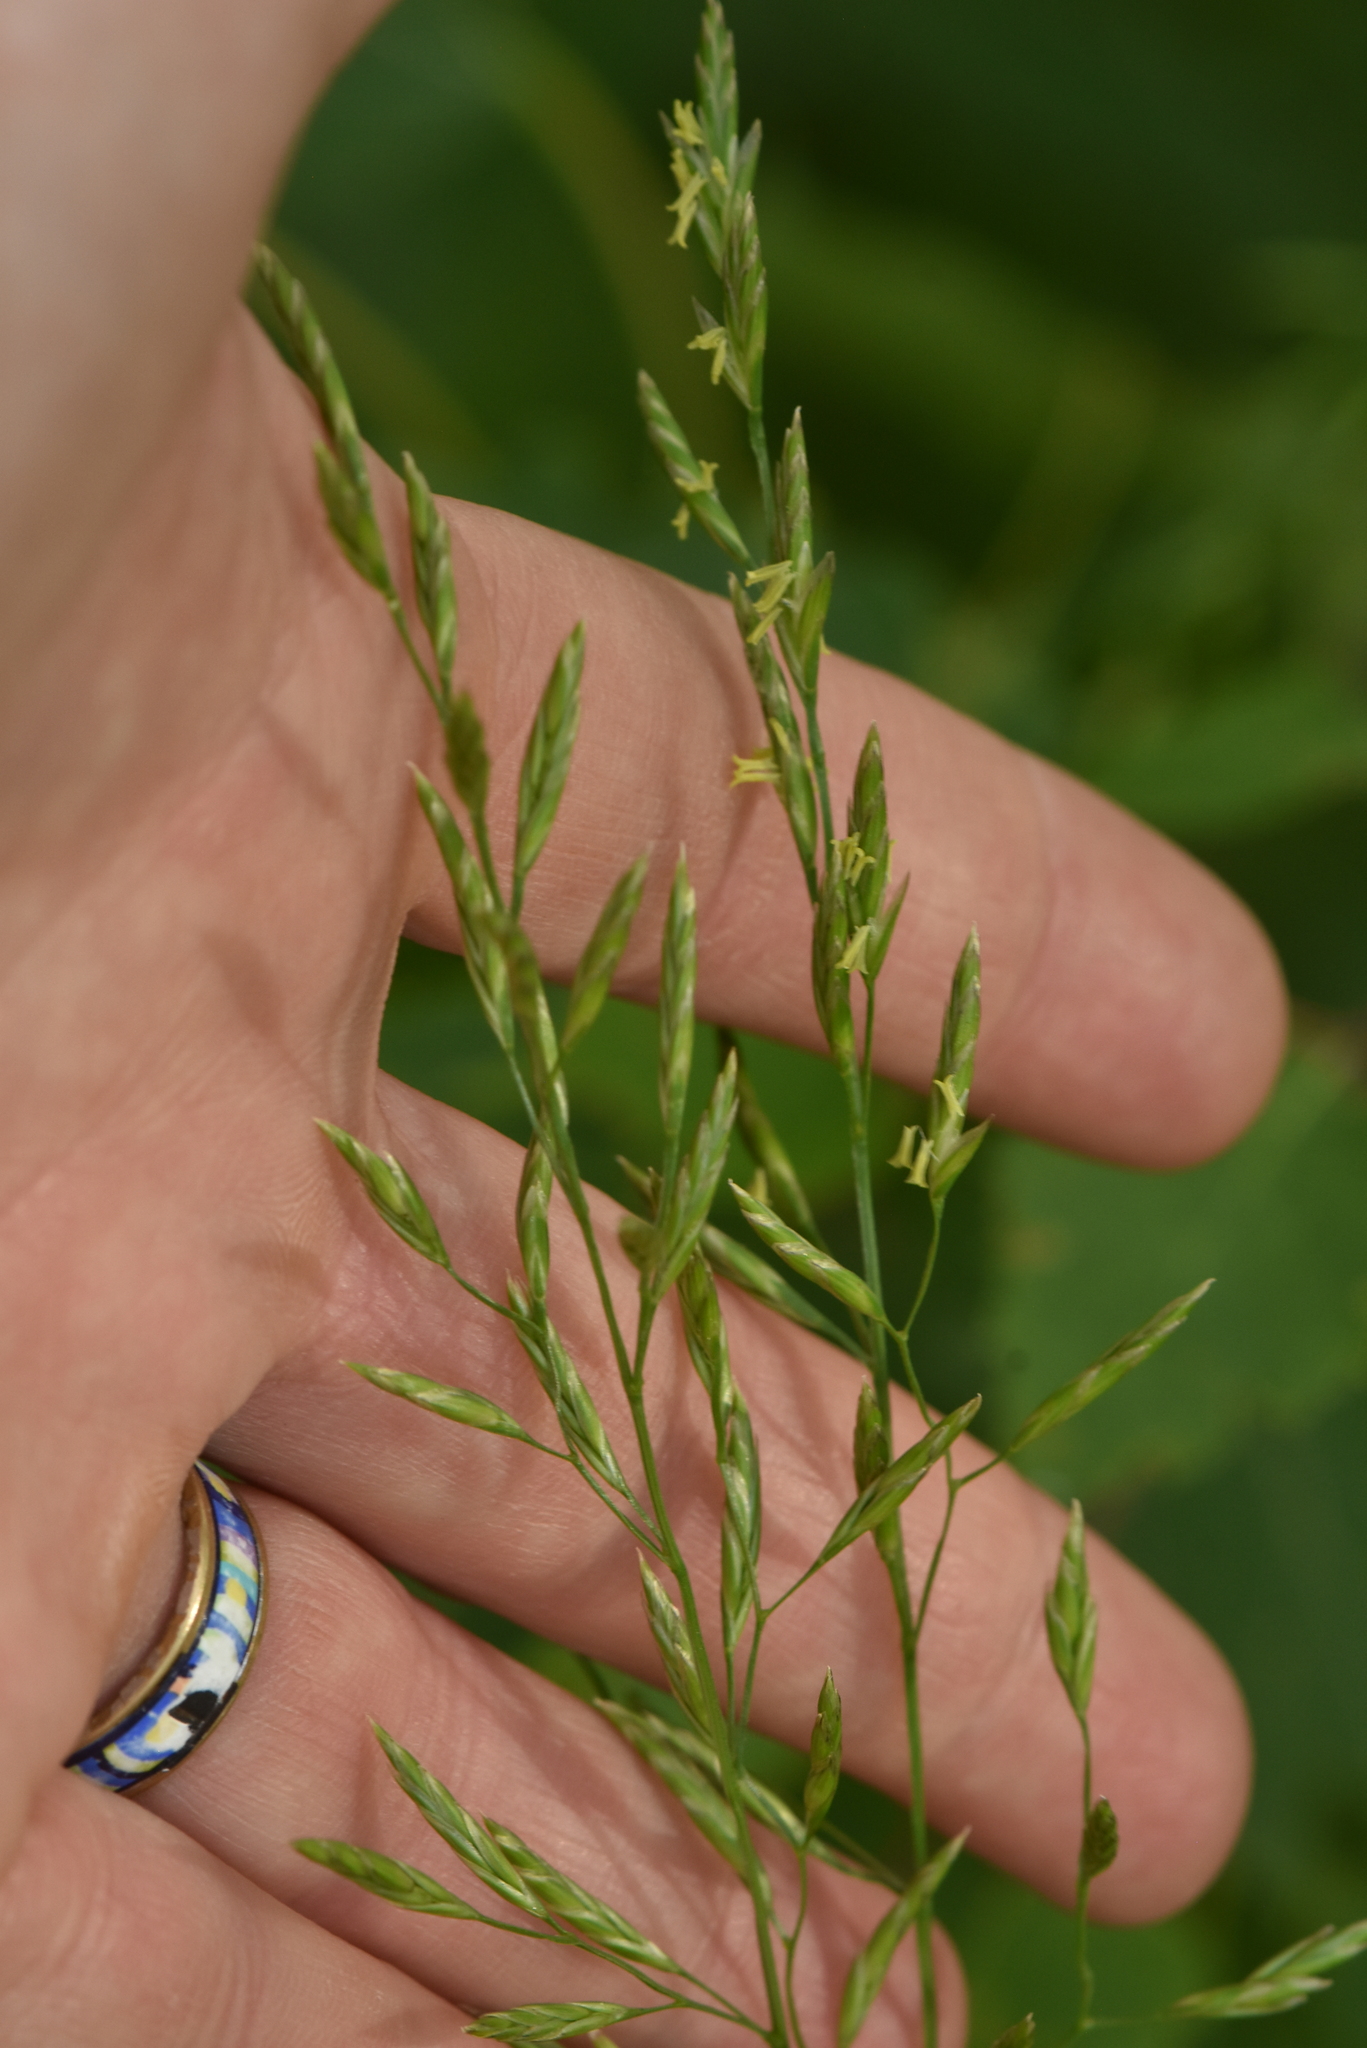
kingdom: Plantae
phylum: Tracheophyta
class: Liliopsida
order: Poales
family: Poaceae
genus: Lolium
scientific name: Lolium pratense
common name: Dover grass
